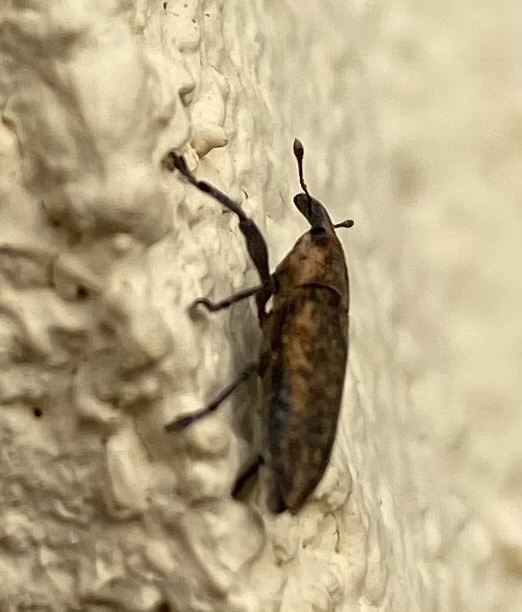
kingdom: Animalia
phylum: Arthropoda
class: Insecta
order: Coleoptera
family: Curculionidae
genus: Lixus
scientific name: Lixus subtilis
